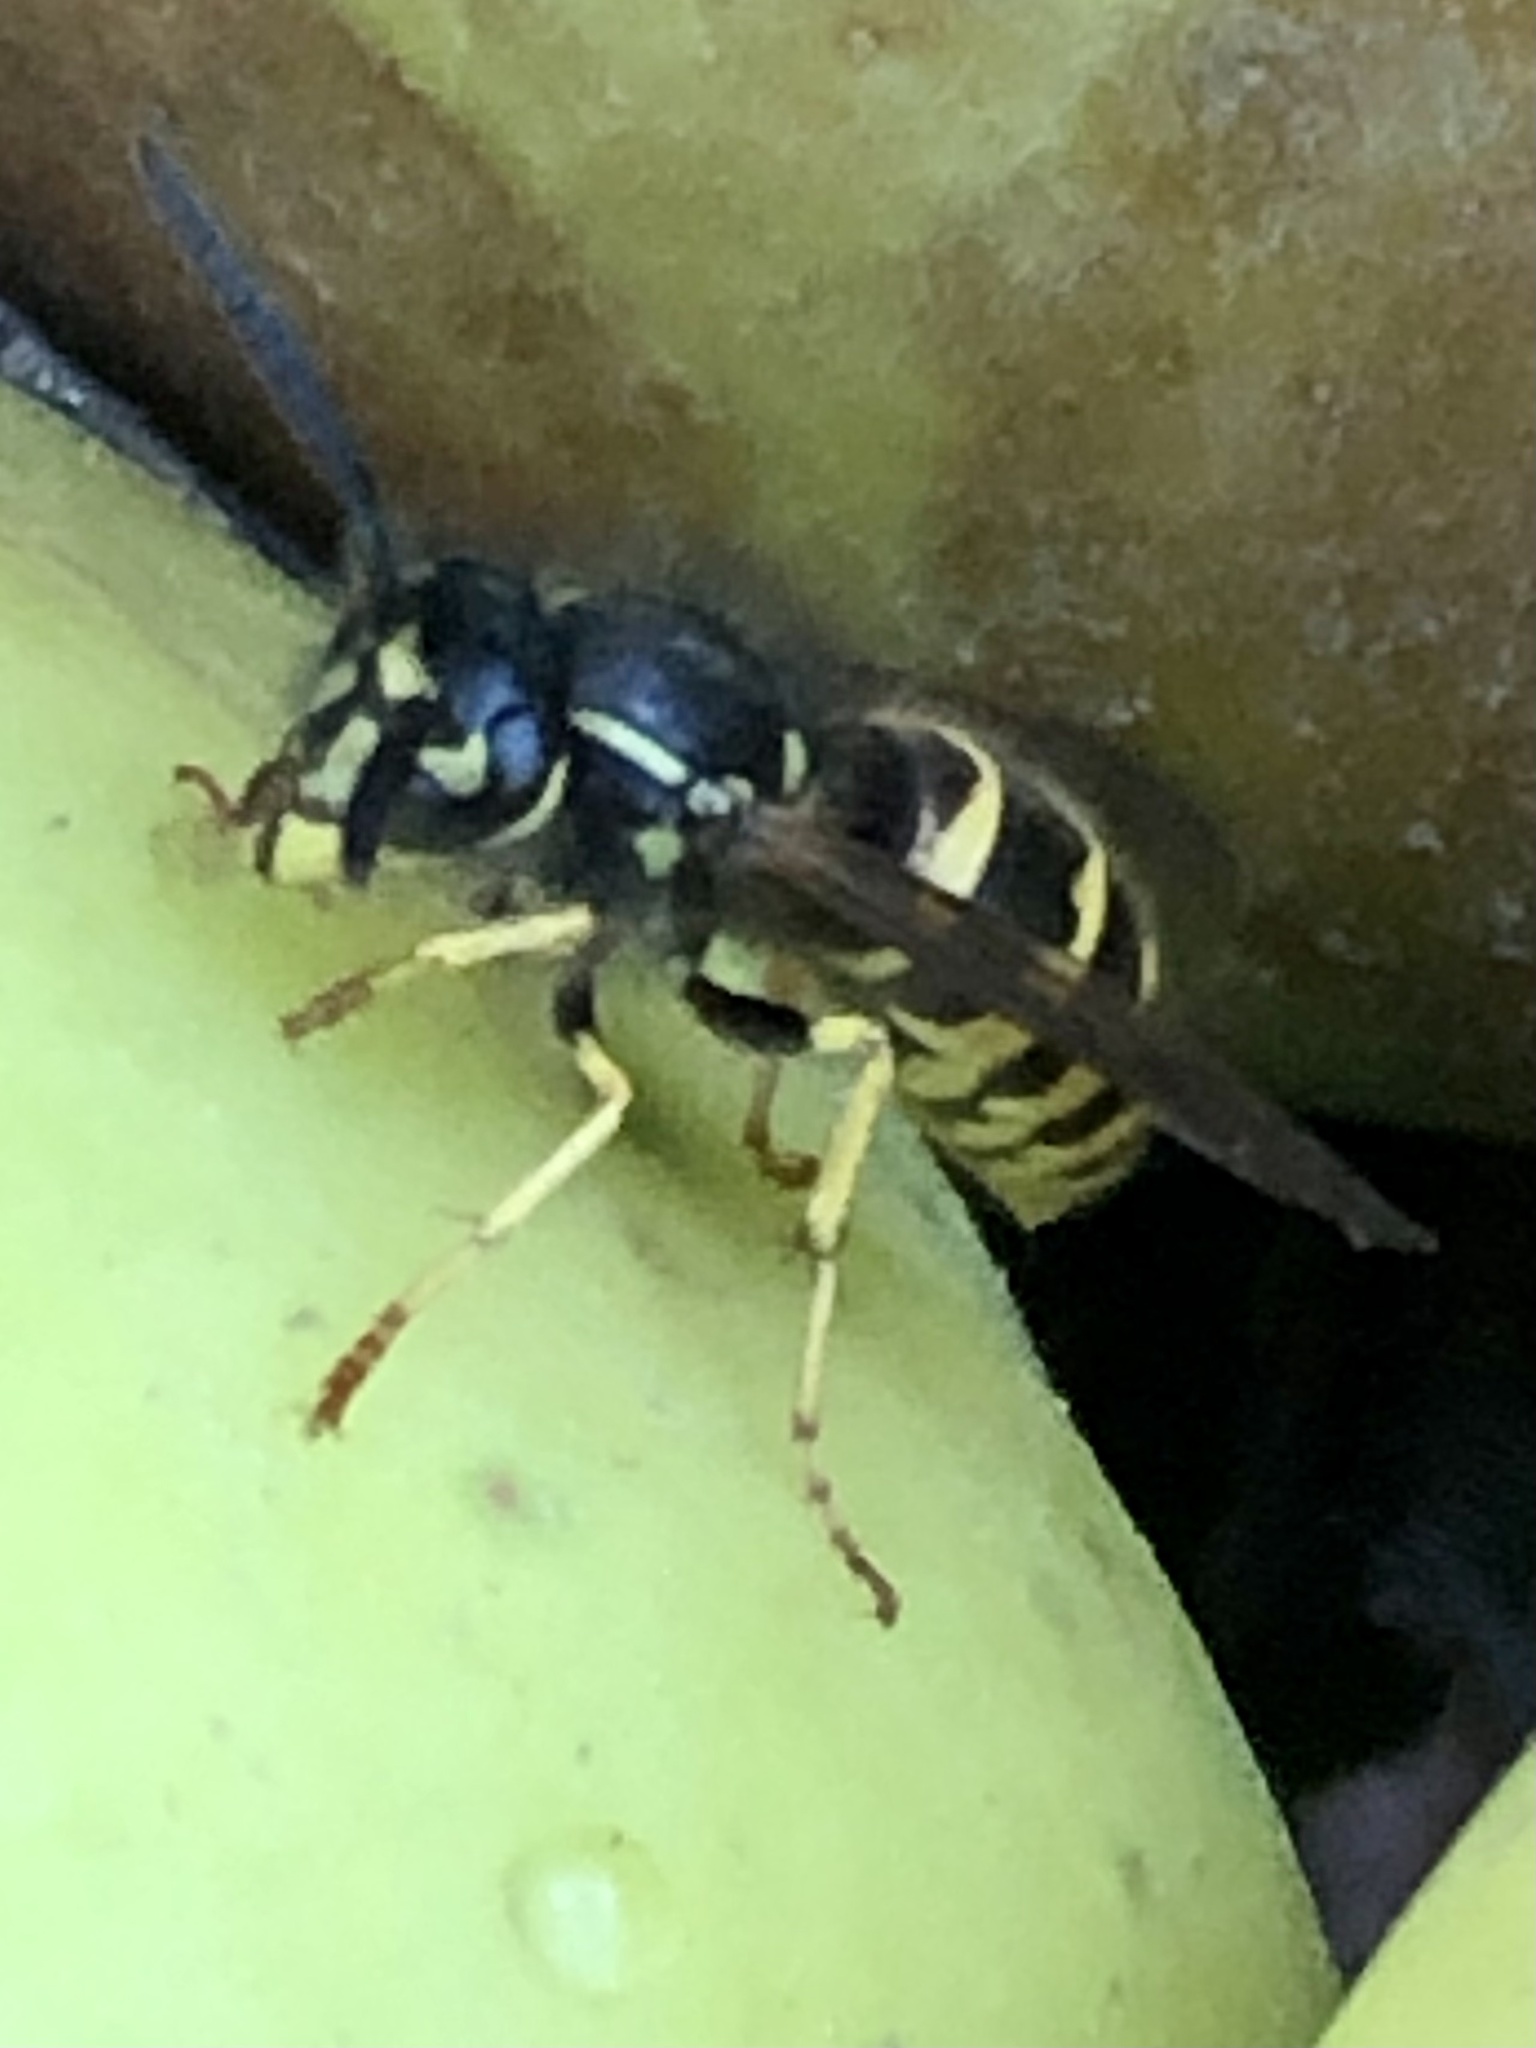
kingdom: Animalia
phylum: Arthropoda
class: Insecta
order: Hymenoptera
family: Vespidae
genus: Vespula
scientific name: Vespula alascensis
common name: Alaska yellowjacket
